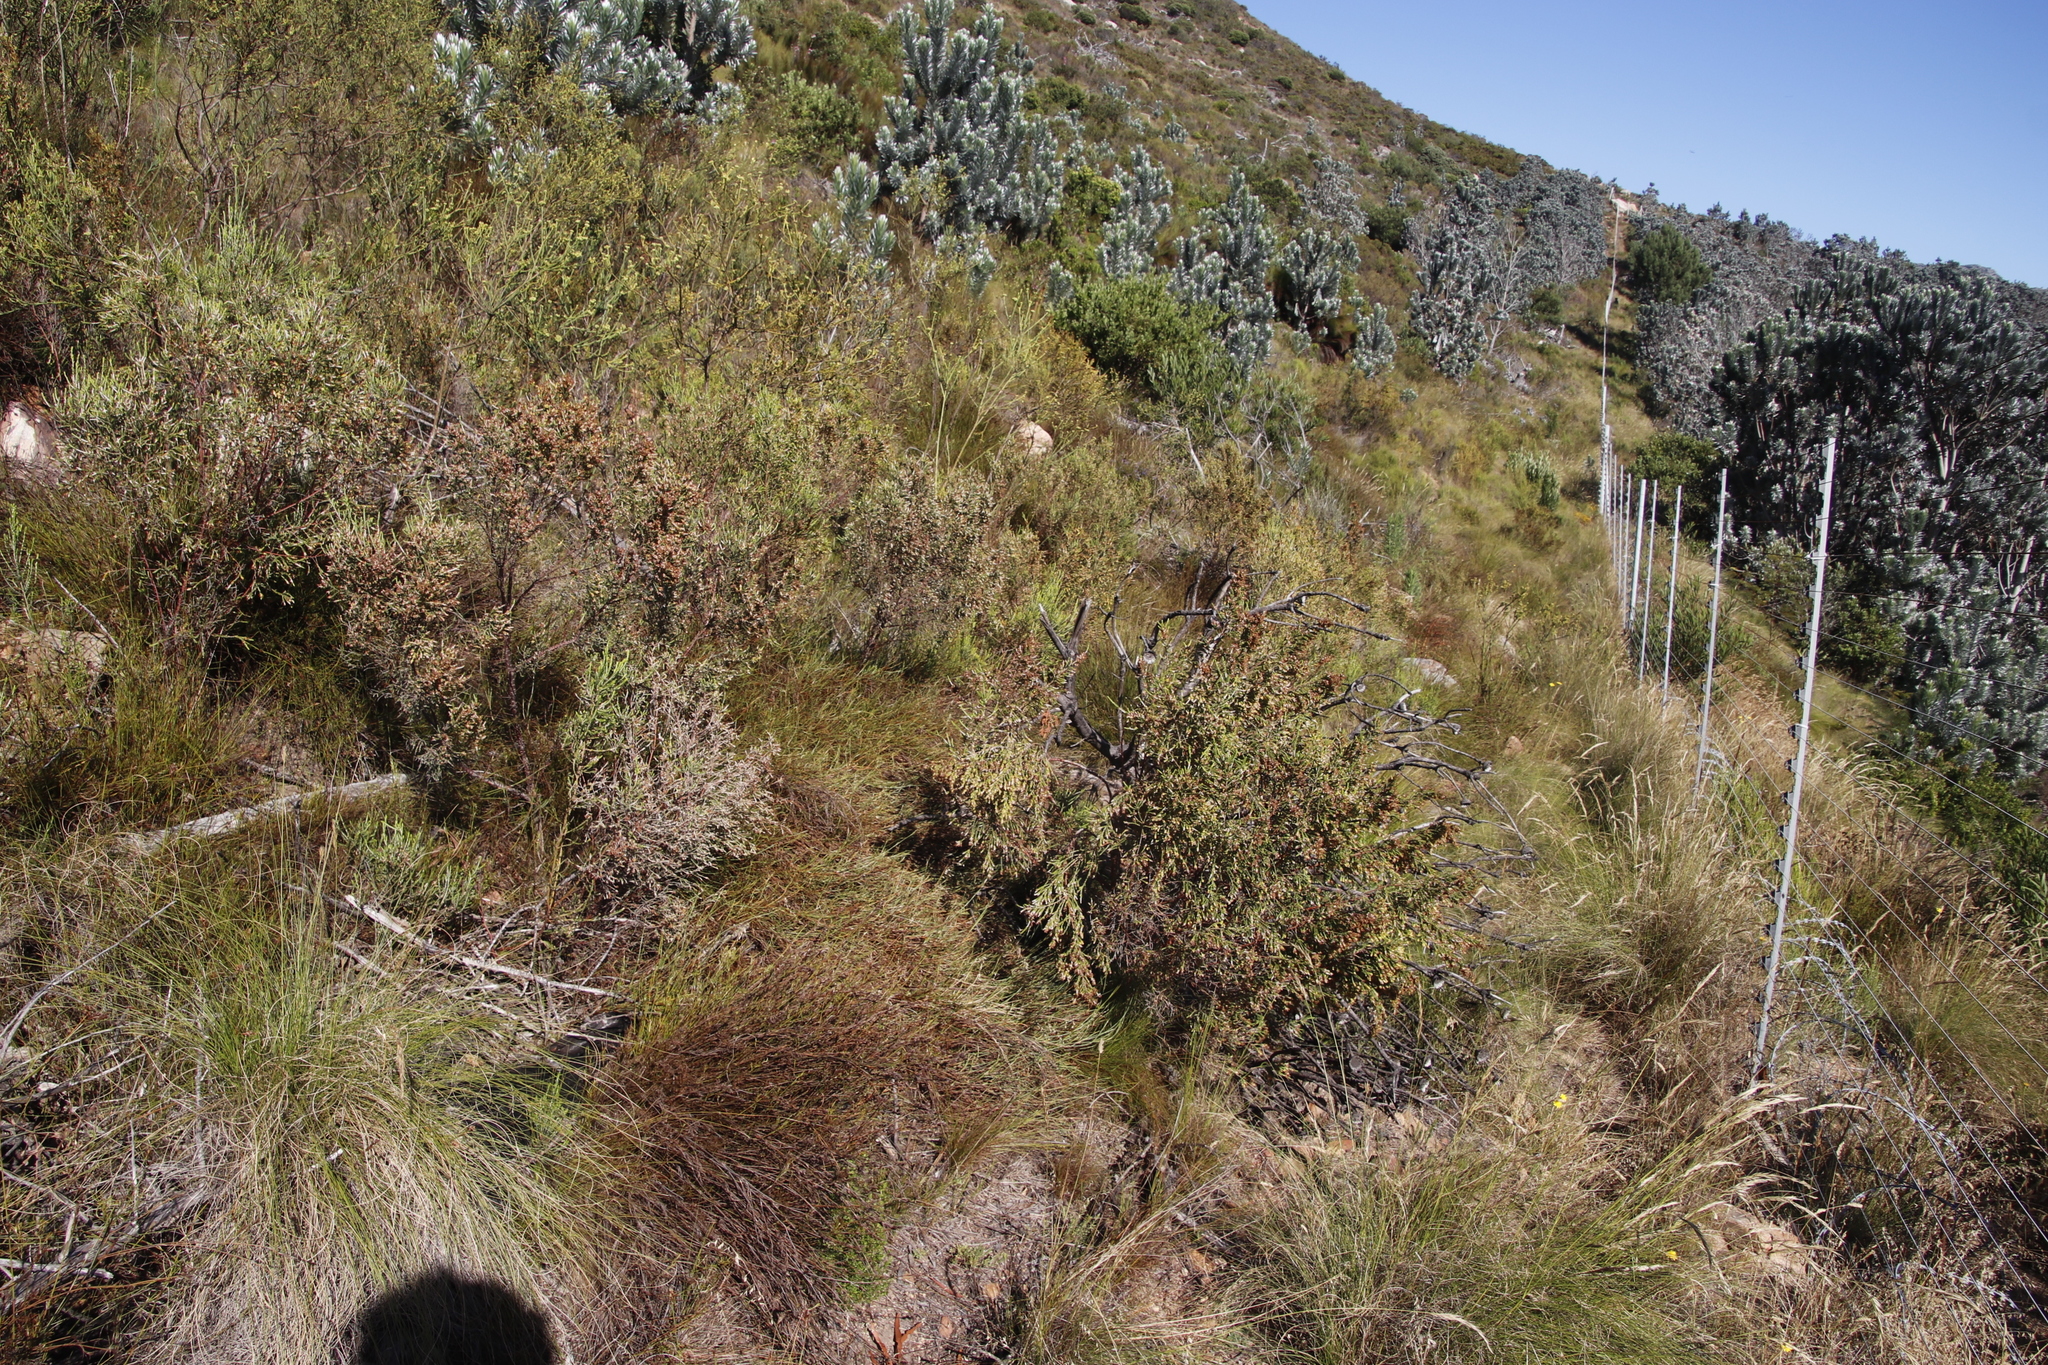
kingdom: Plantae
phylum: Tracheophyta
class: Magnoliopsida
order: Malvales
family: Thymelaeaceae
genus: Passerina
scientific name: Passerina corymbosa
